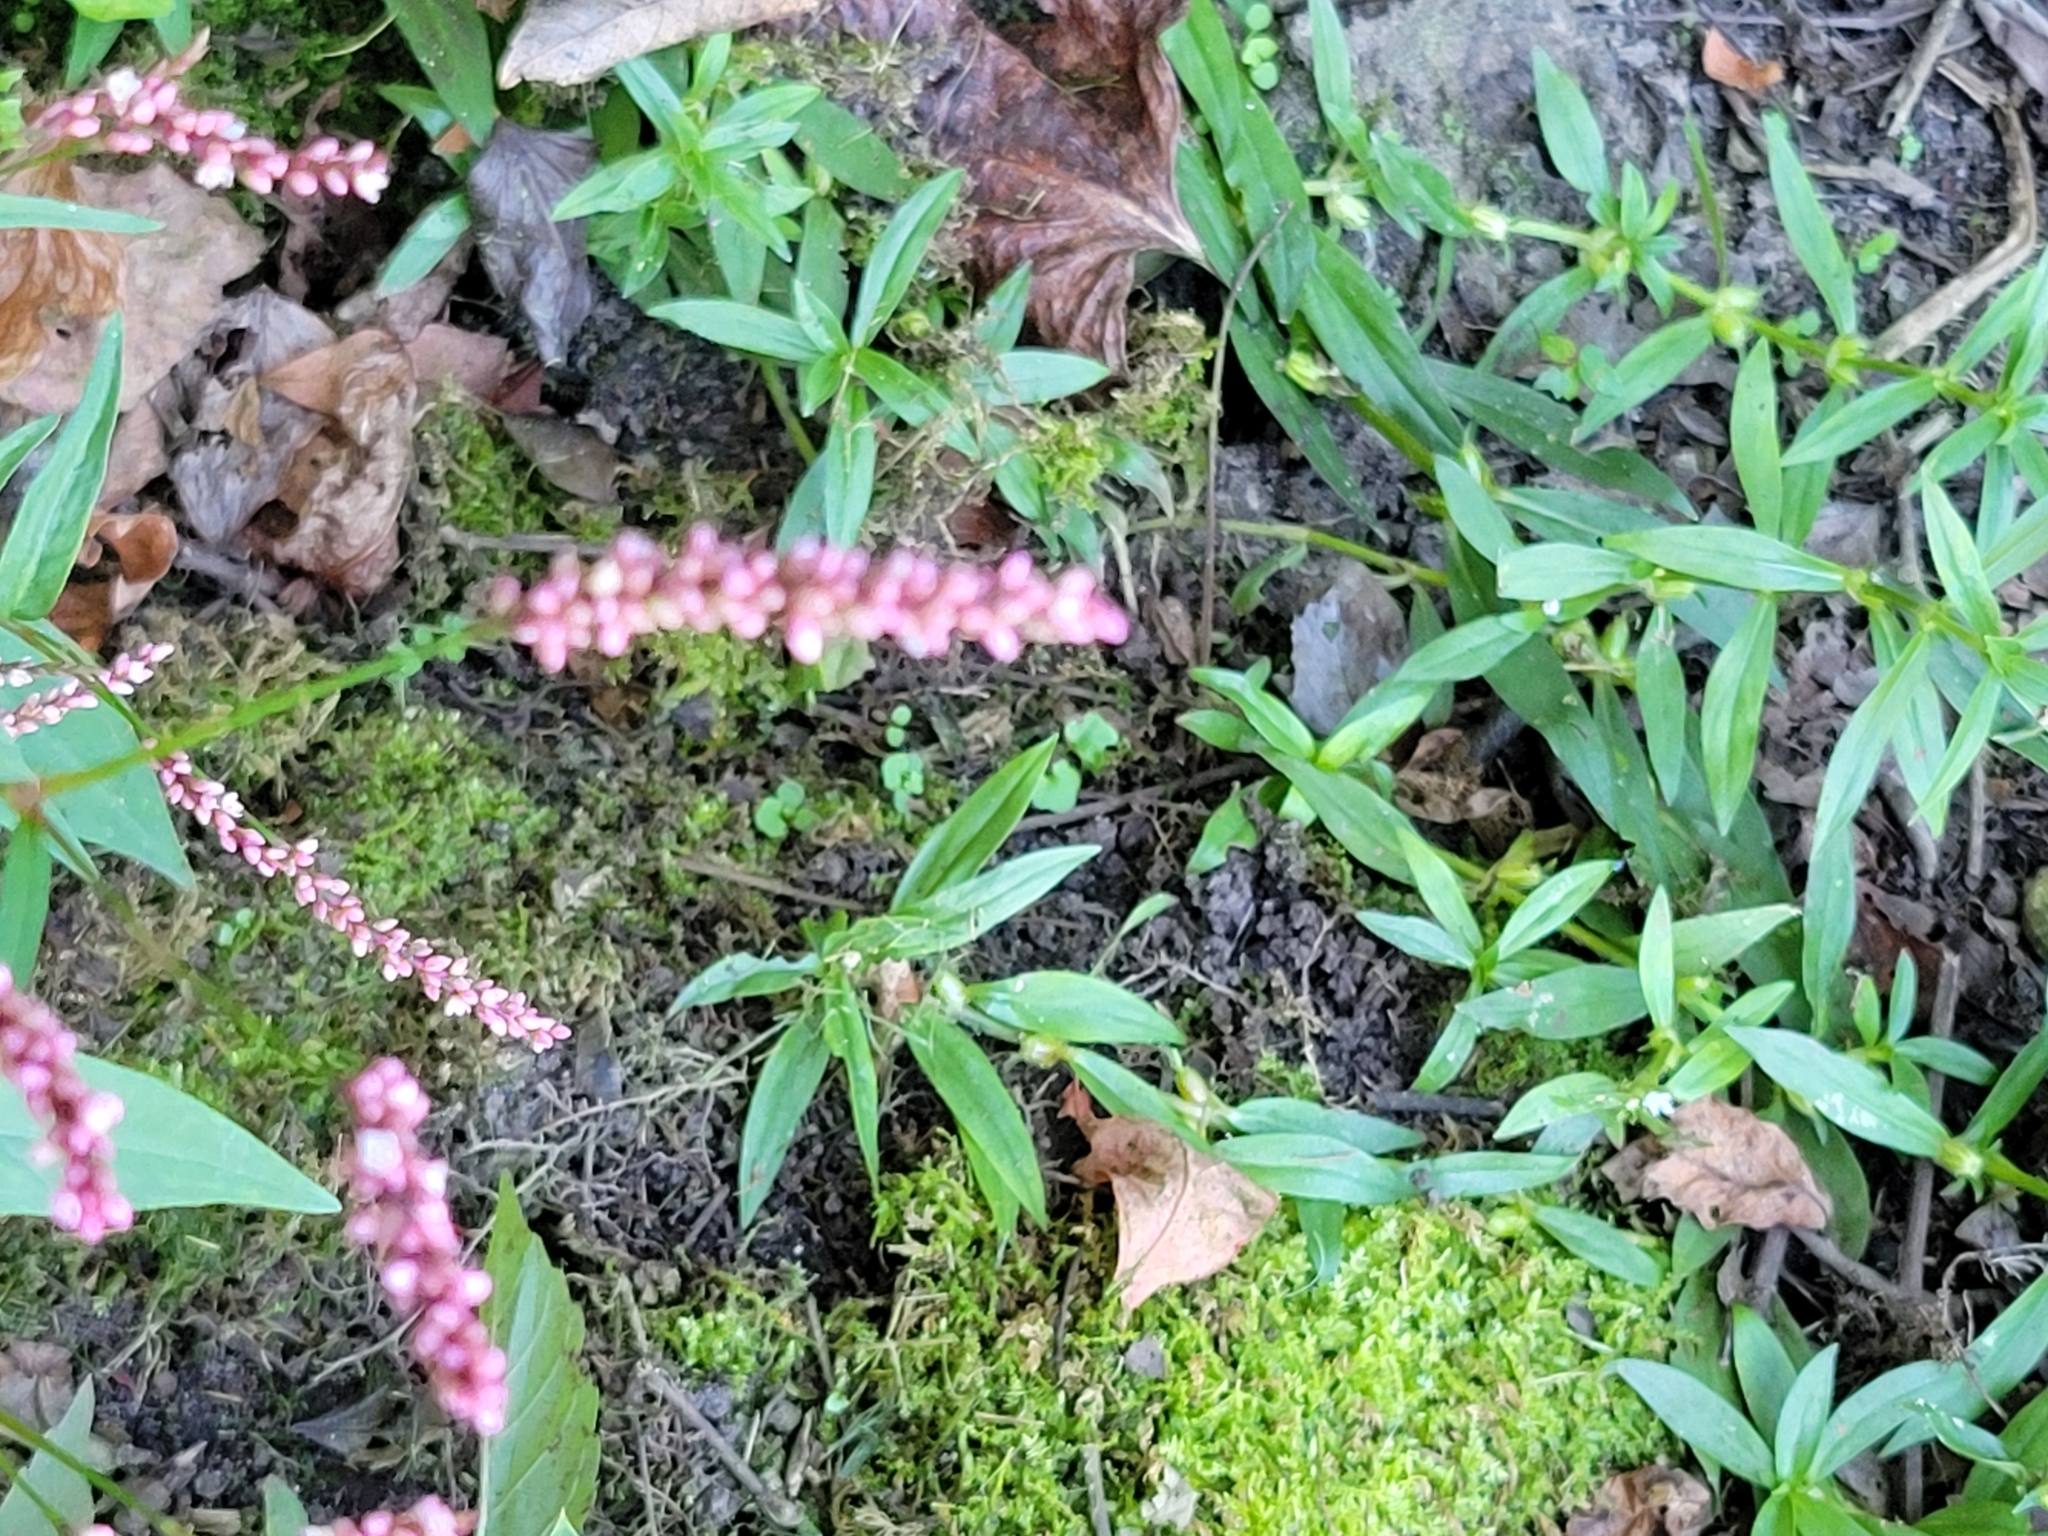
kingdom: Plantae
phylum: Tracheophyta
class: Magnoliopsida
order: Caryophyllales
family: Polygonaceae
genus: Persicaria
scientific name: Persicaria longiseta
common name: Bristly lady's-thumb
